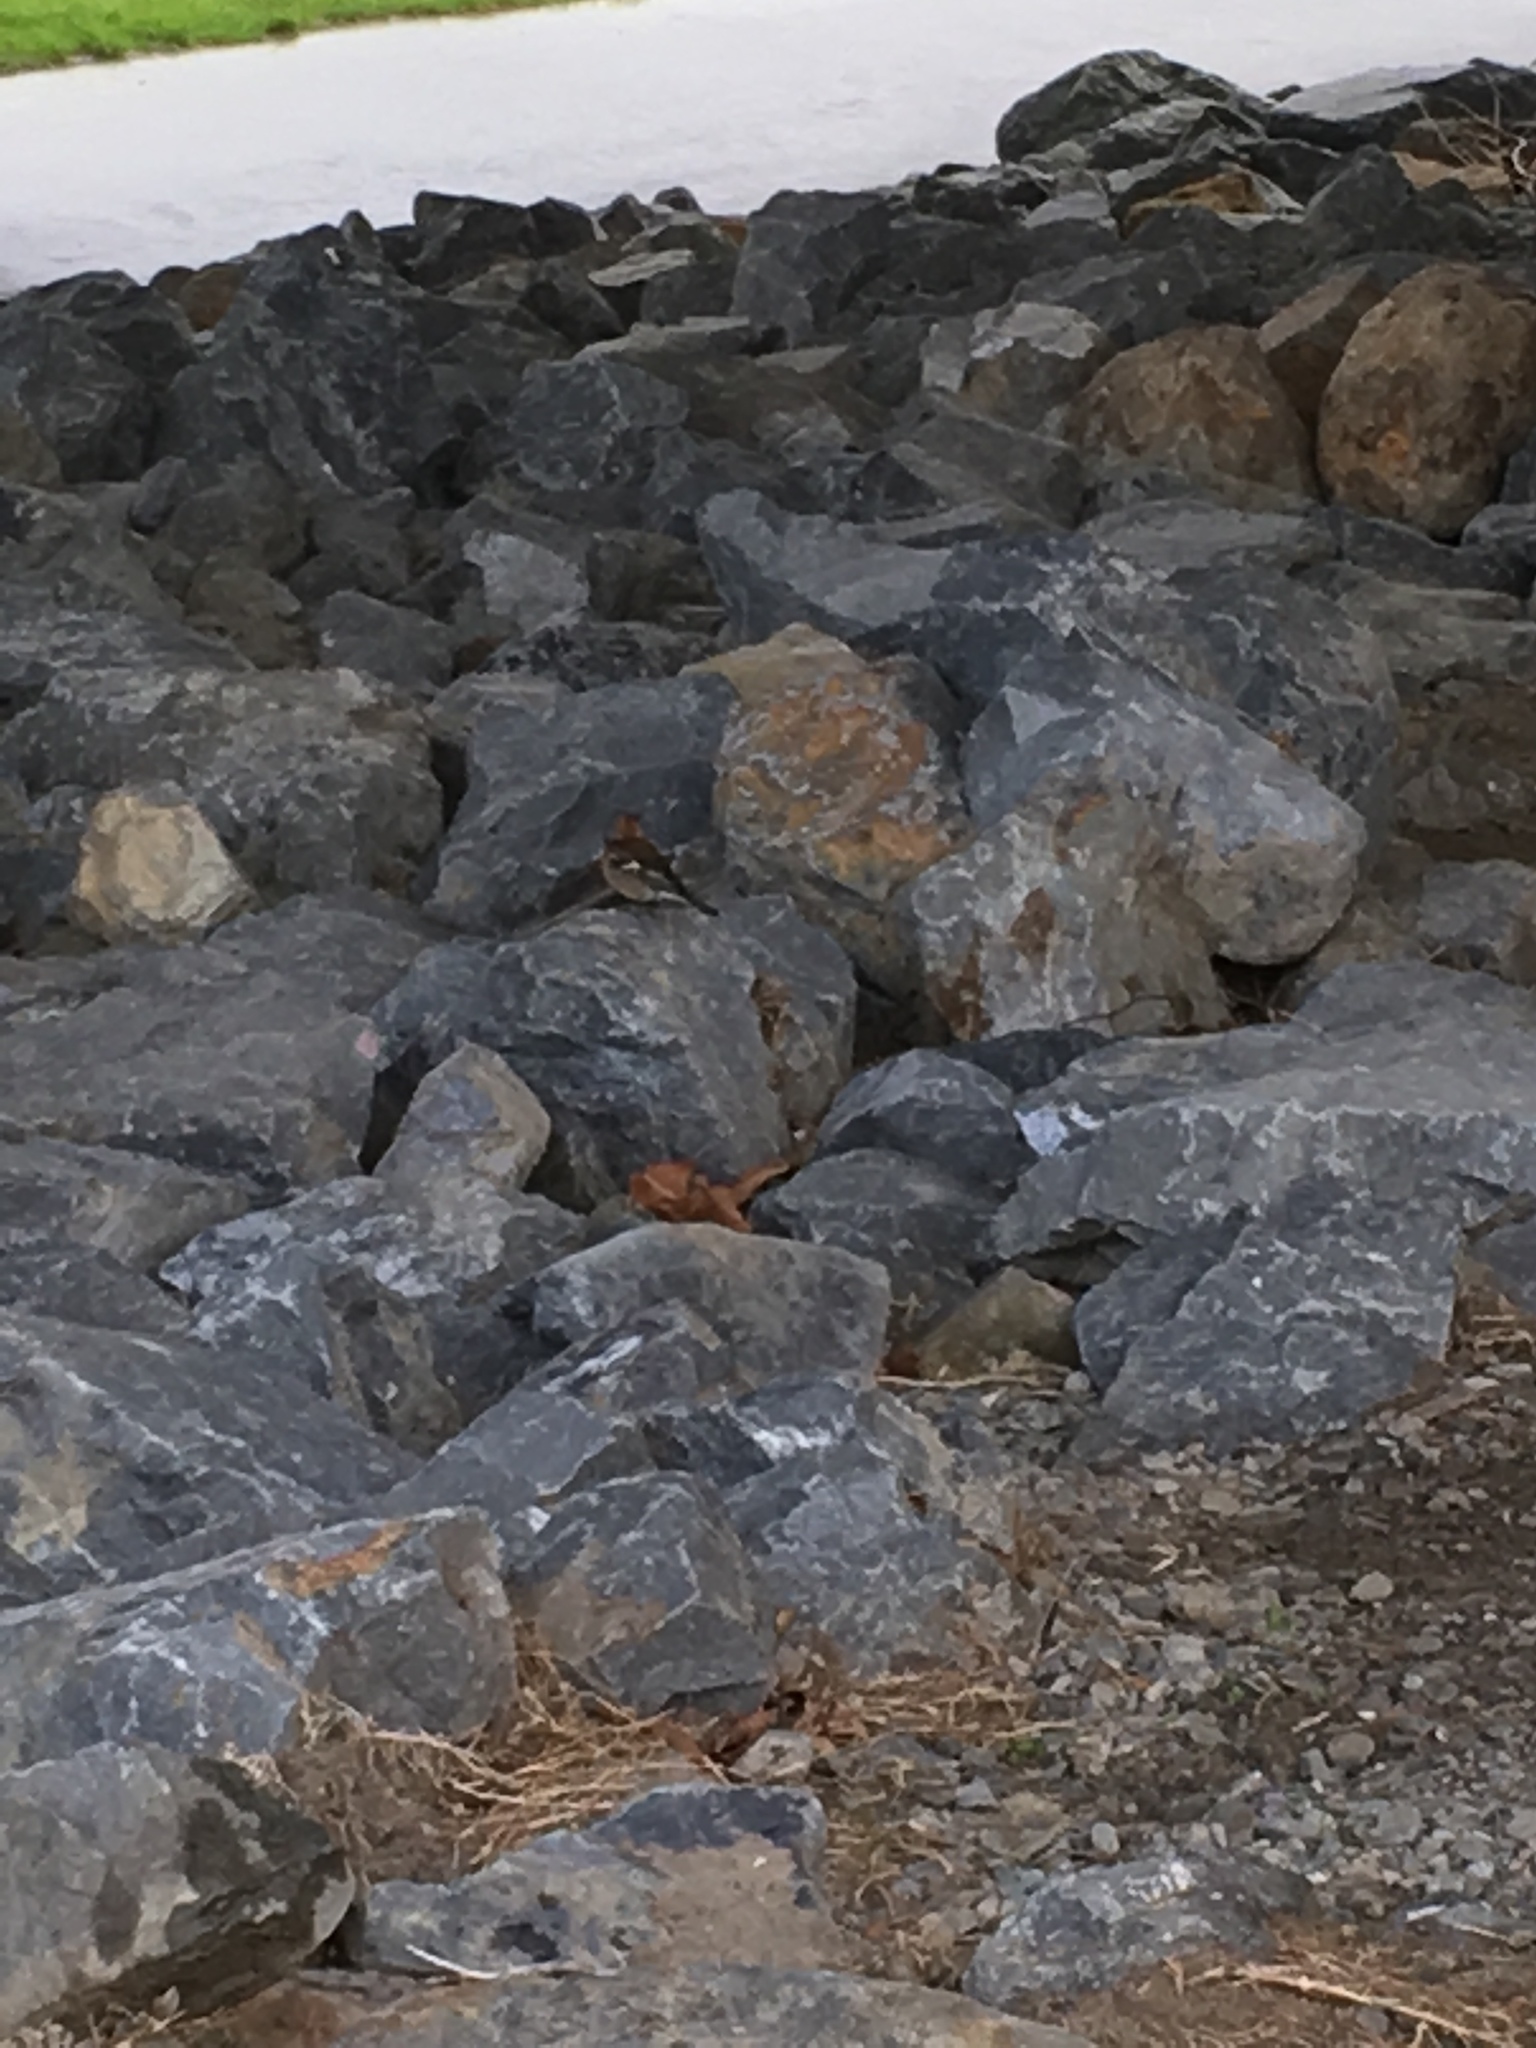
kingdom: Animalia
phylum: Chordata
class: Aves
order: Passeriformes
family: Fringillidae
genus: Fringilla
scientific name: Fringilla coelebs
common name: Common chaffinch
